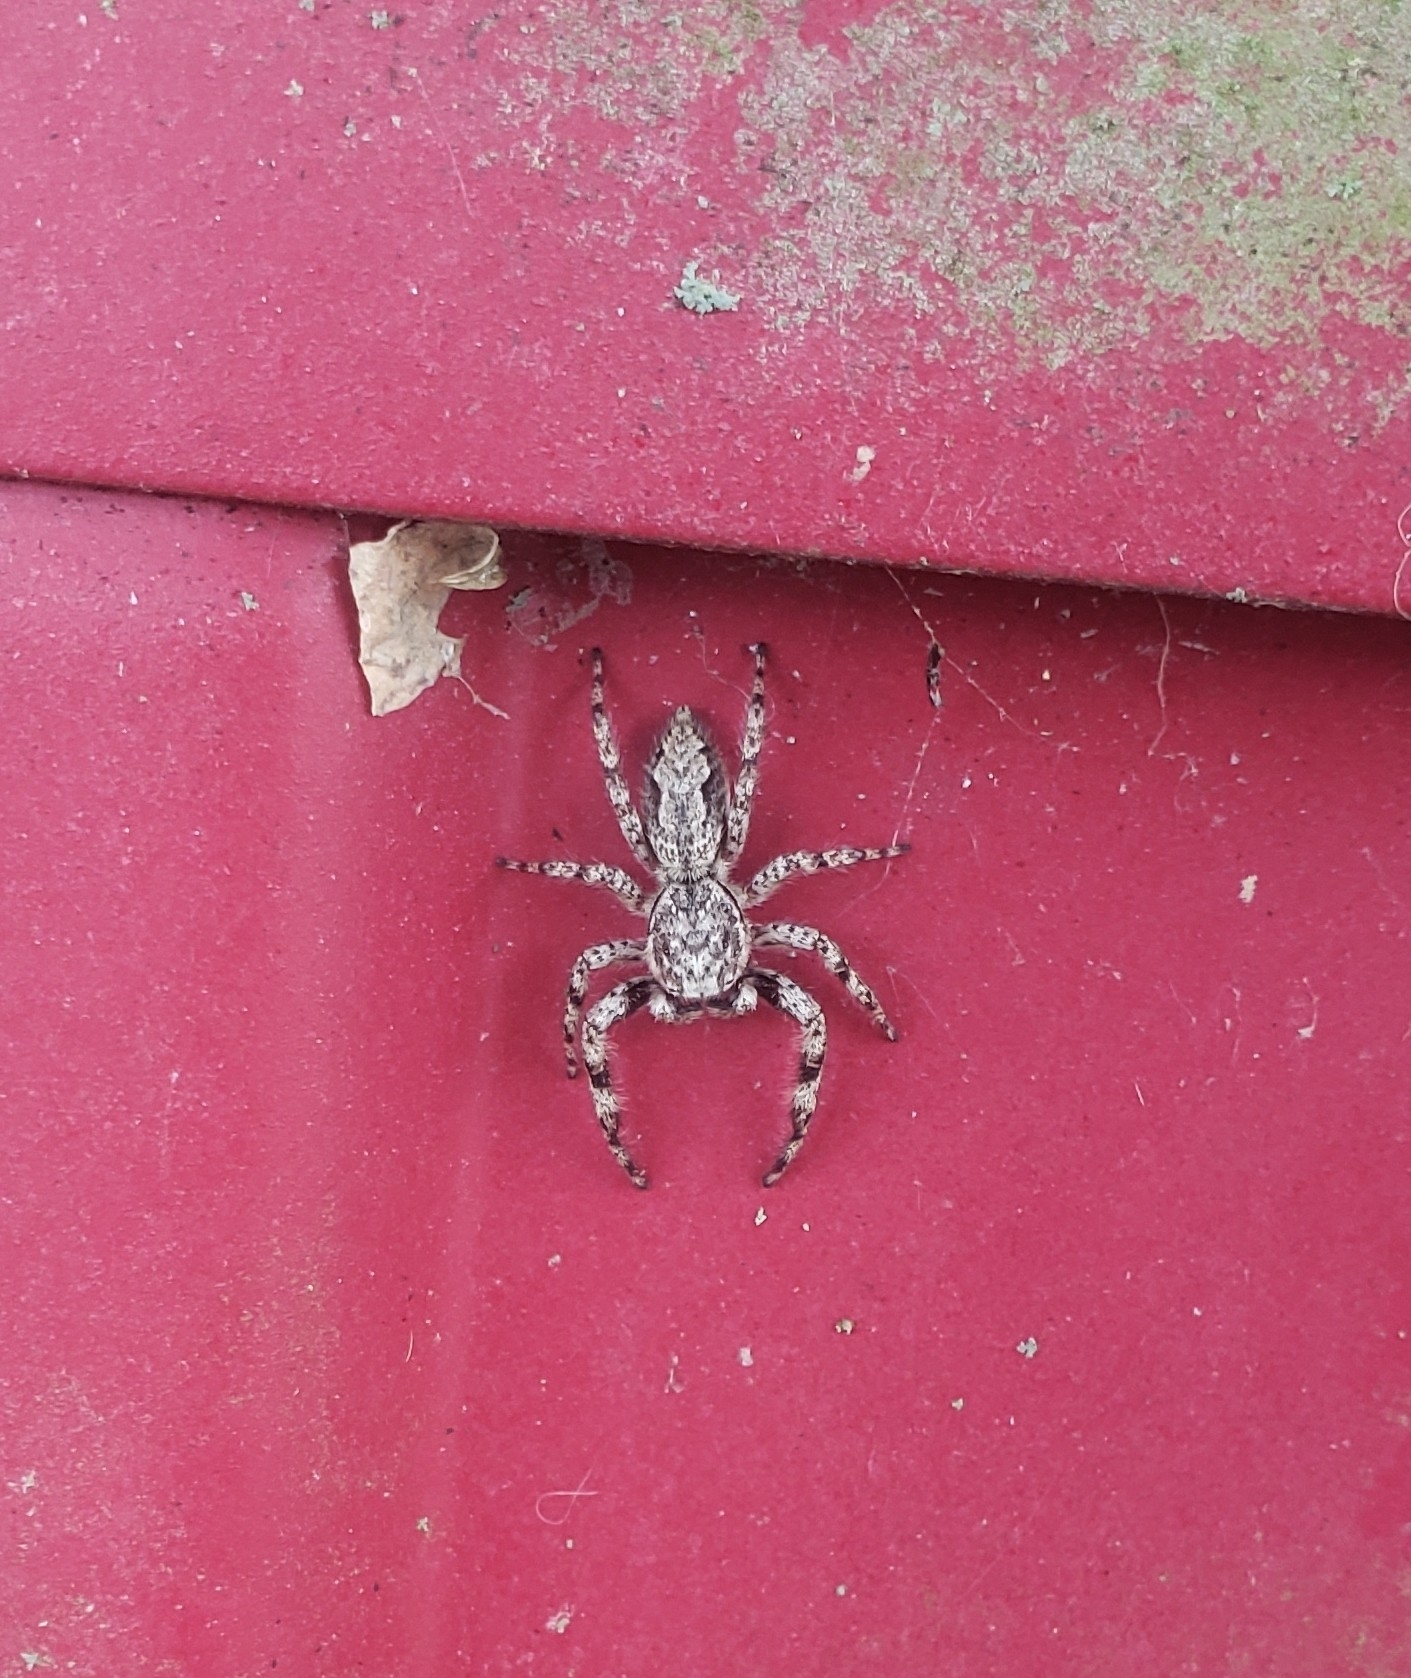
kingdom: Animalia
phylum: Arthropoda
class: Arachnida
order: Araneae
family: Salticidae
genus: Platycryptus
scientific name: Platycryptus undatus
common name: Tan jumping spider
